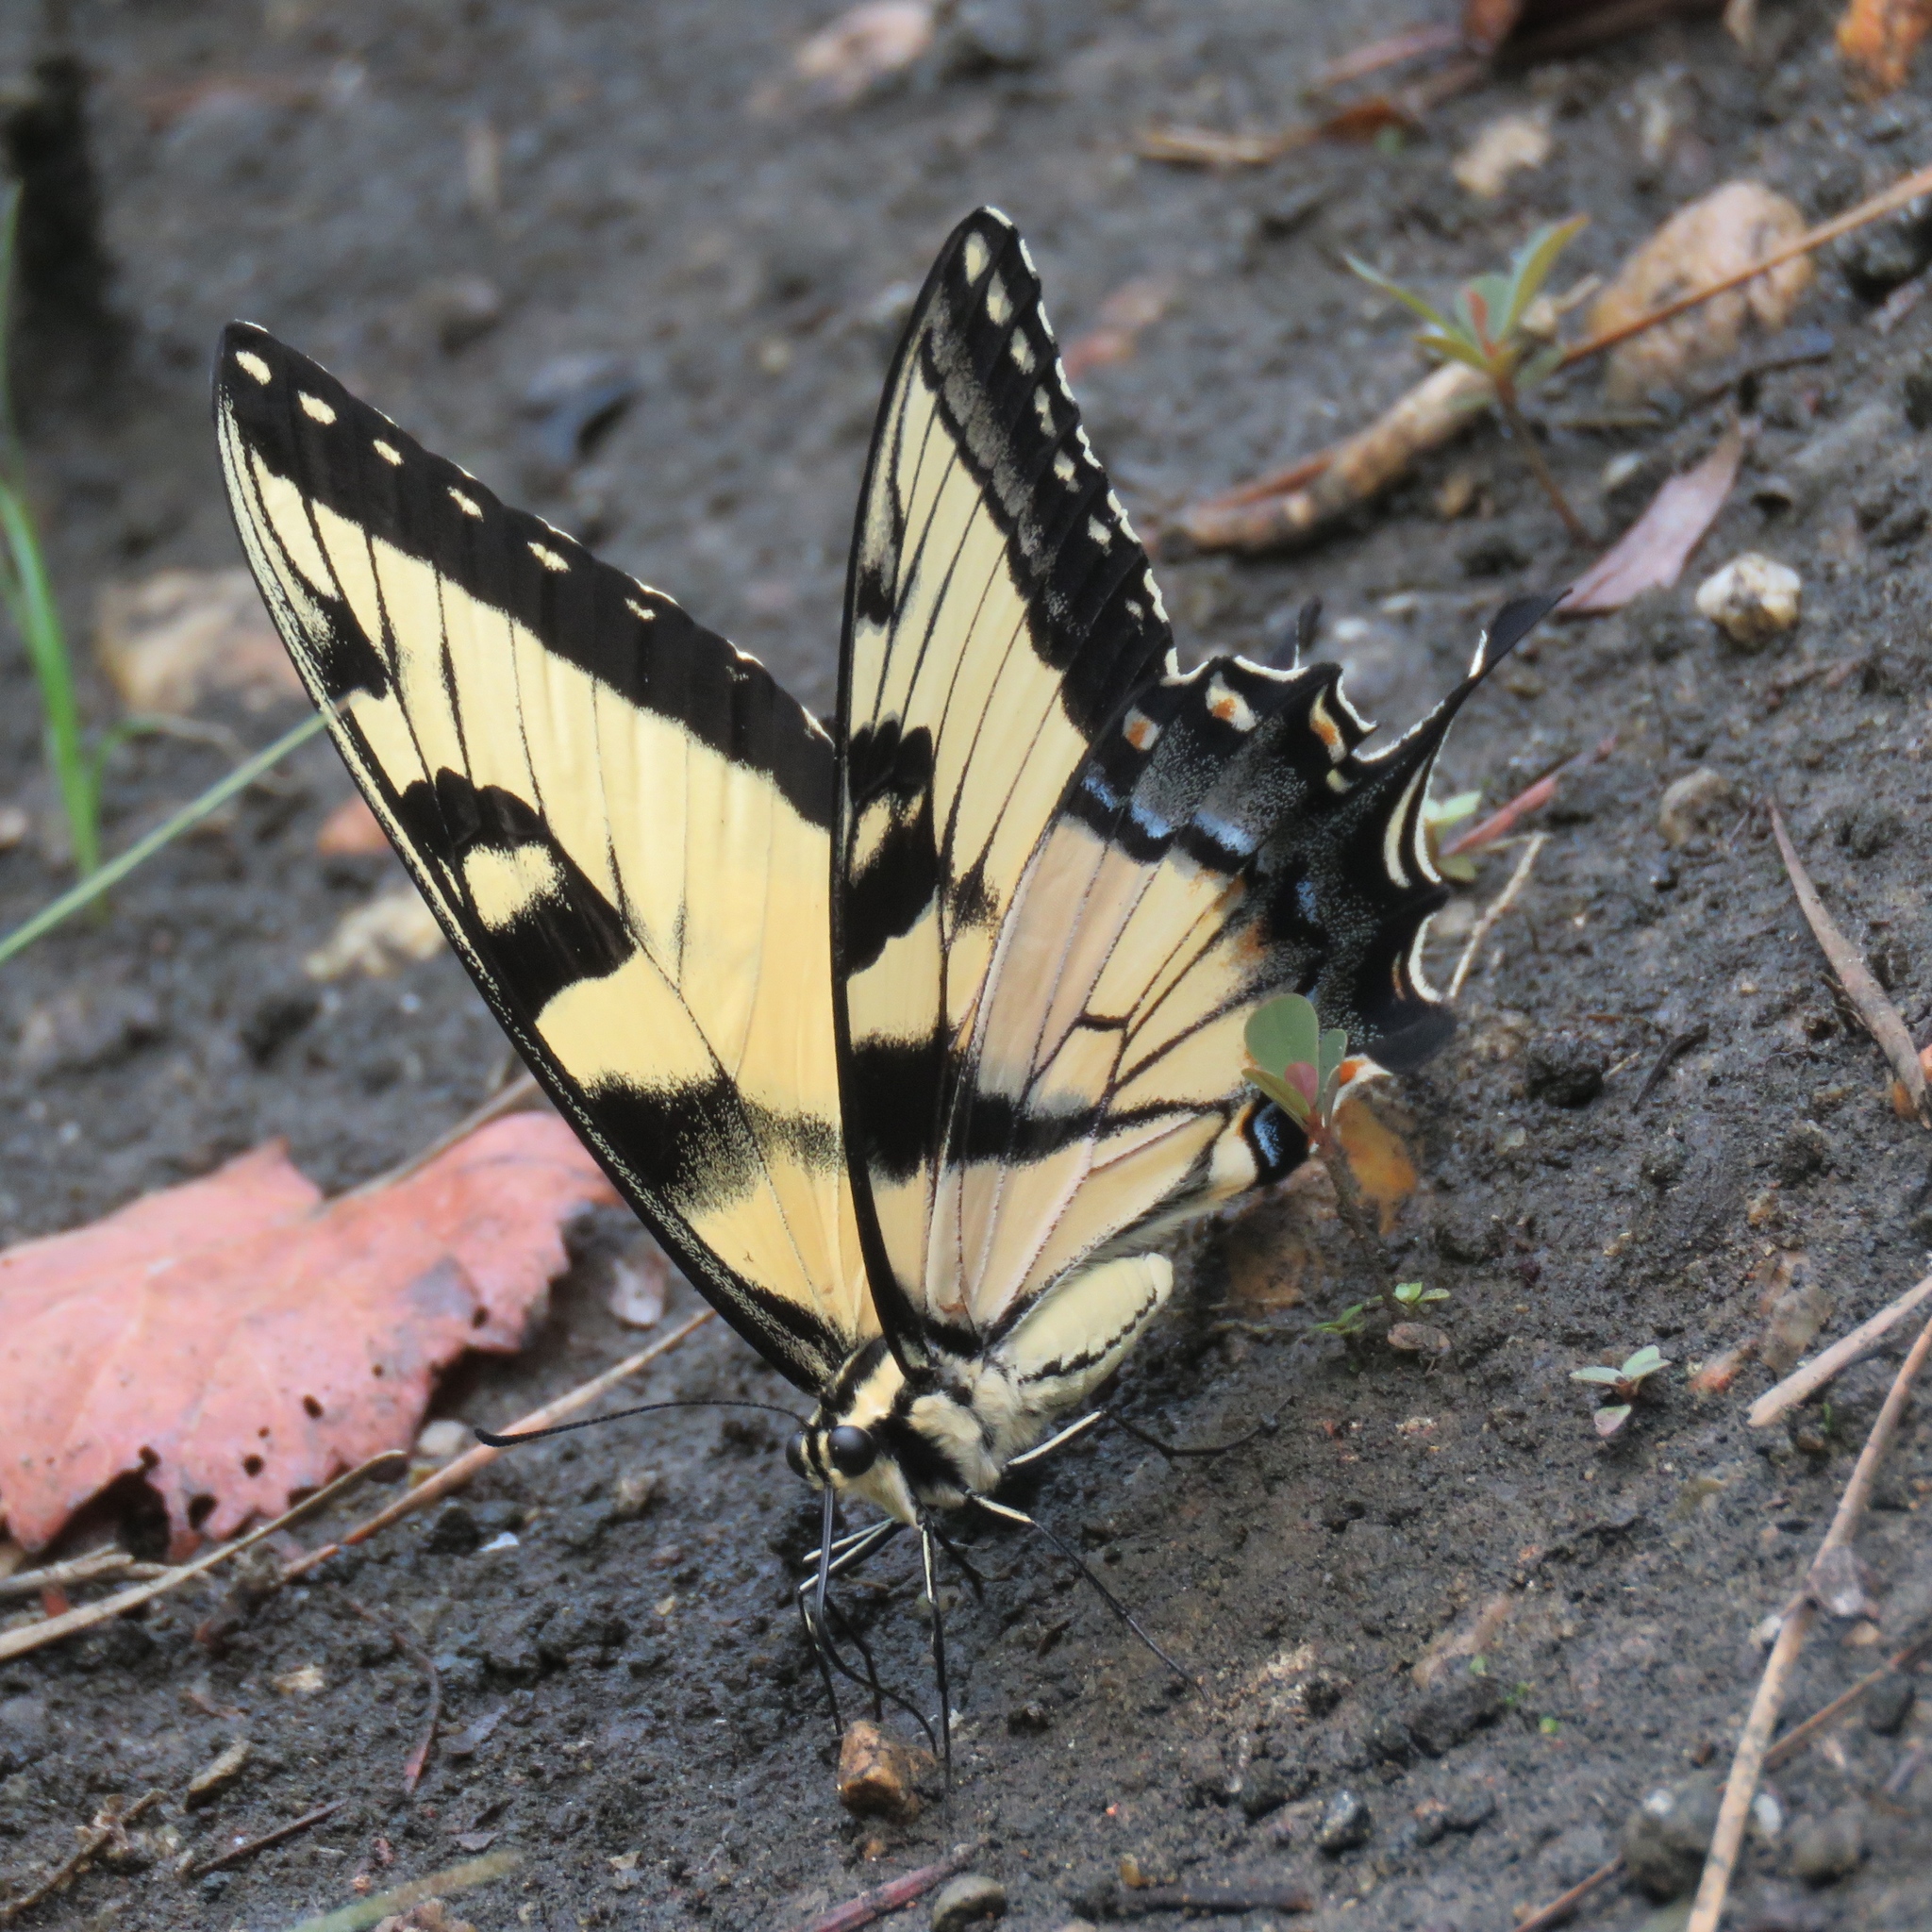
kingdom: Animalia
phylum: Arthropoda
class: Insecta
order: Lepidoptera
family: Papilionidae
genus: Papilio
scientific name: Papilio glaucus
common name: Tiger swallowtail
